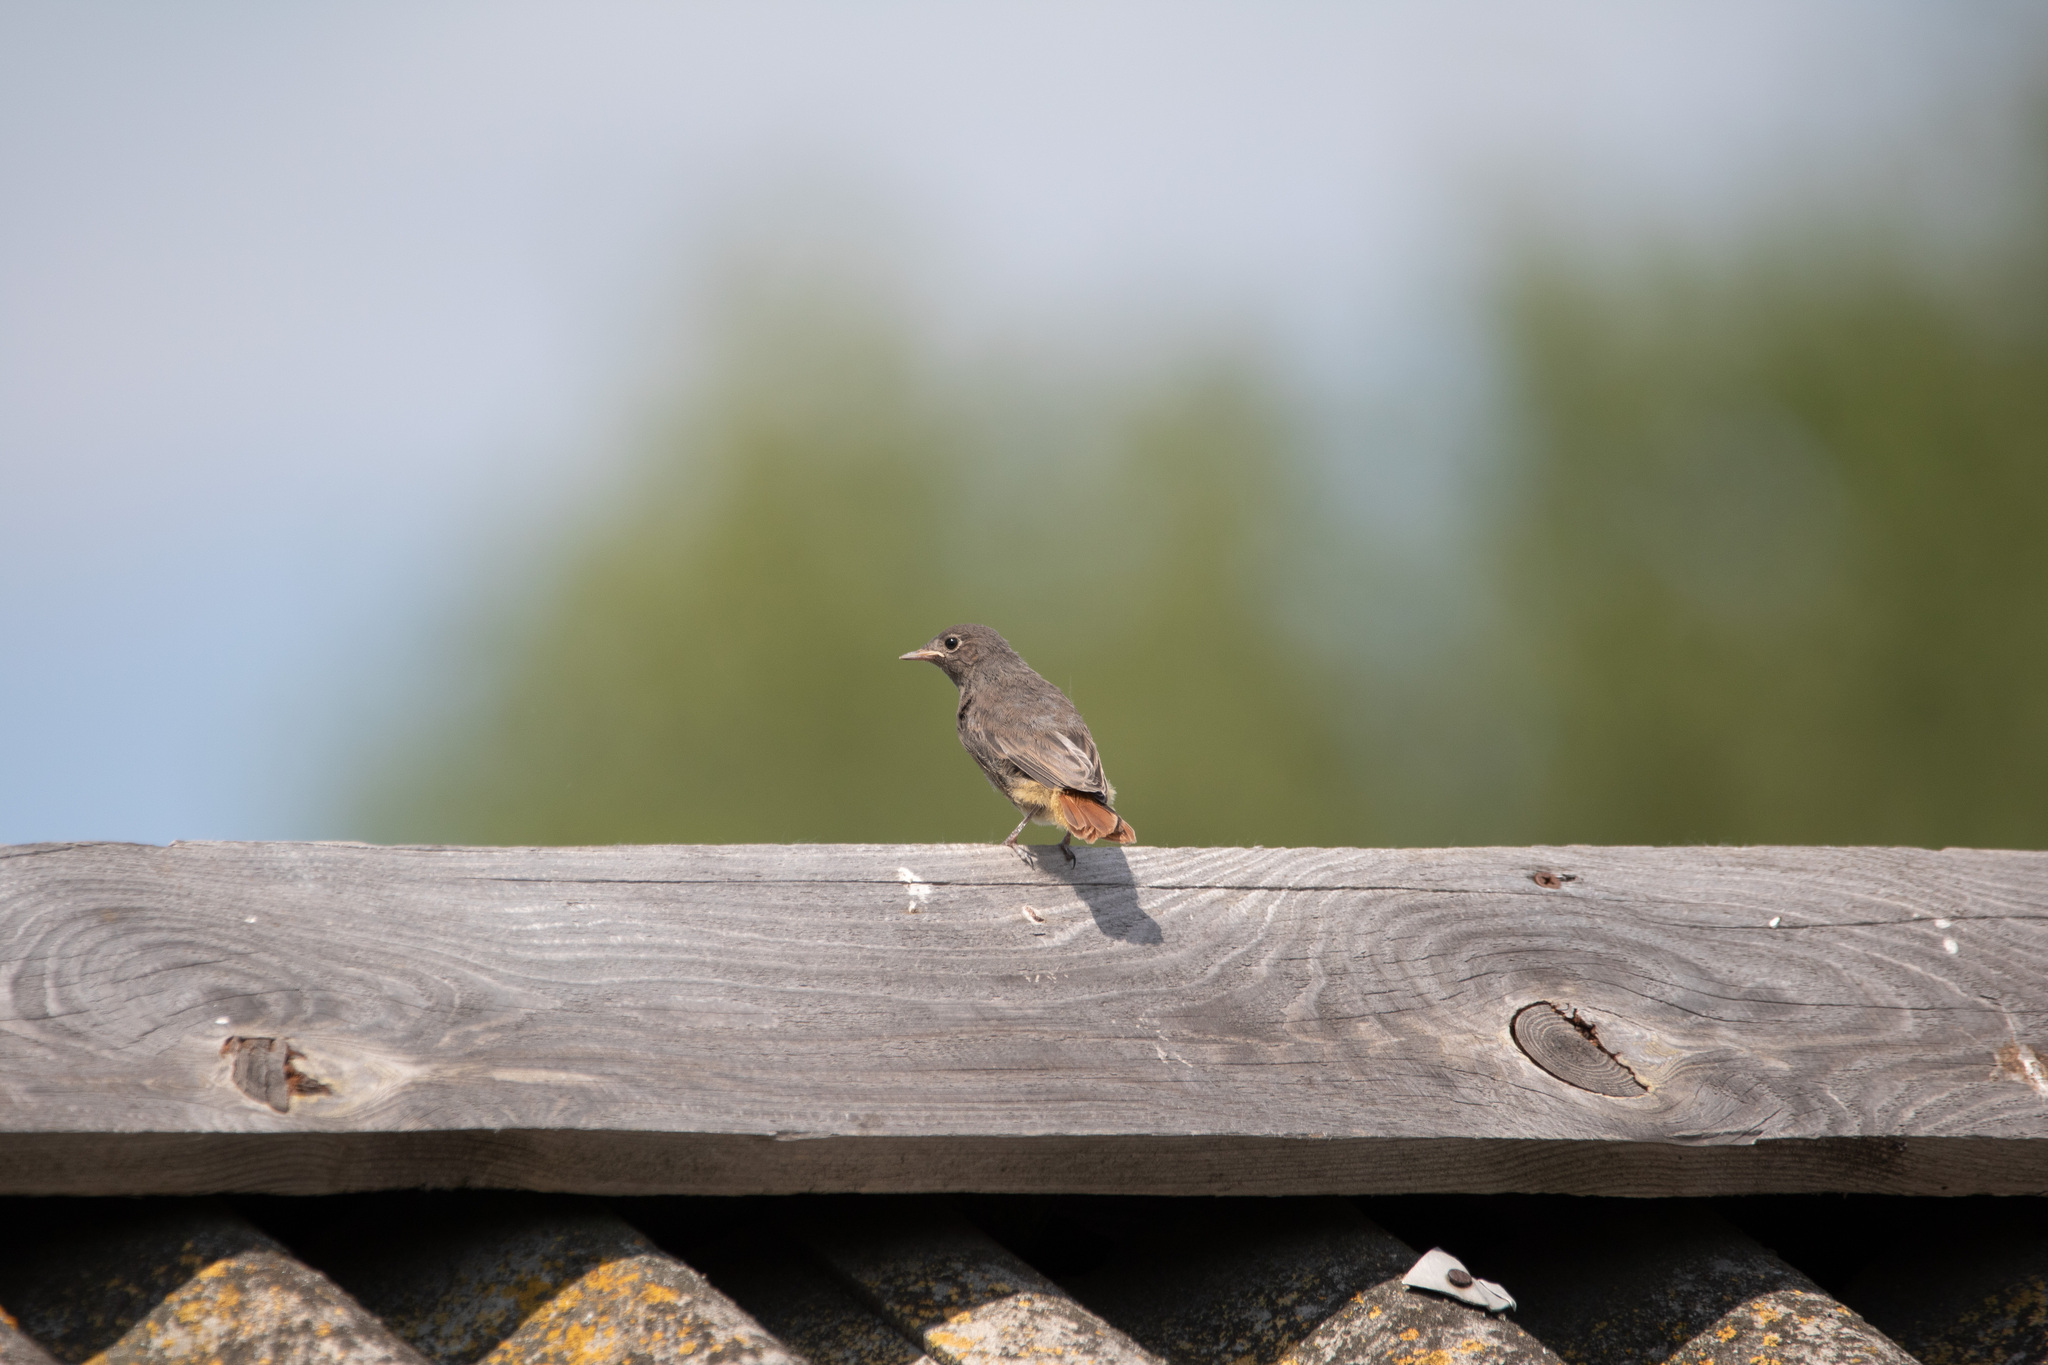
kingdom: Animalia
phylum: Chordata
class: Aves
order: Passeriformes
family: Muscicapidae
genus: Phoenicurus
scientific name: Phoenicurus ochruros
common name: Black redstart
